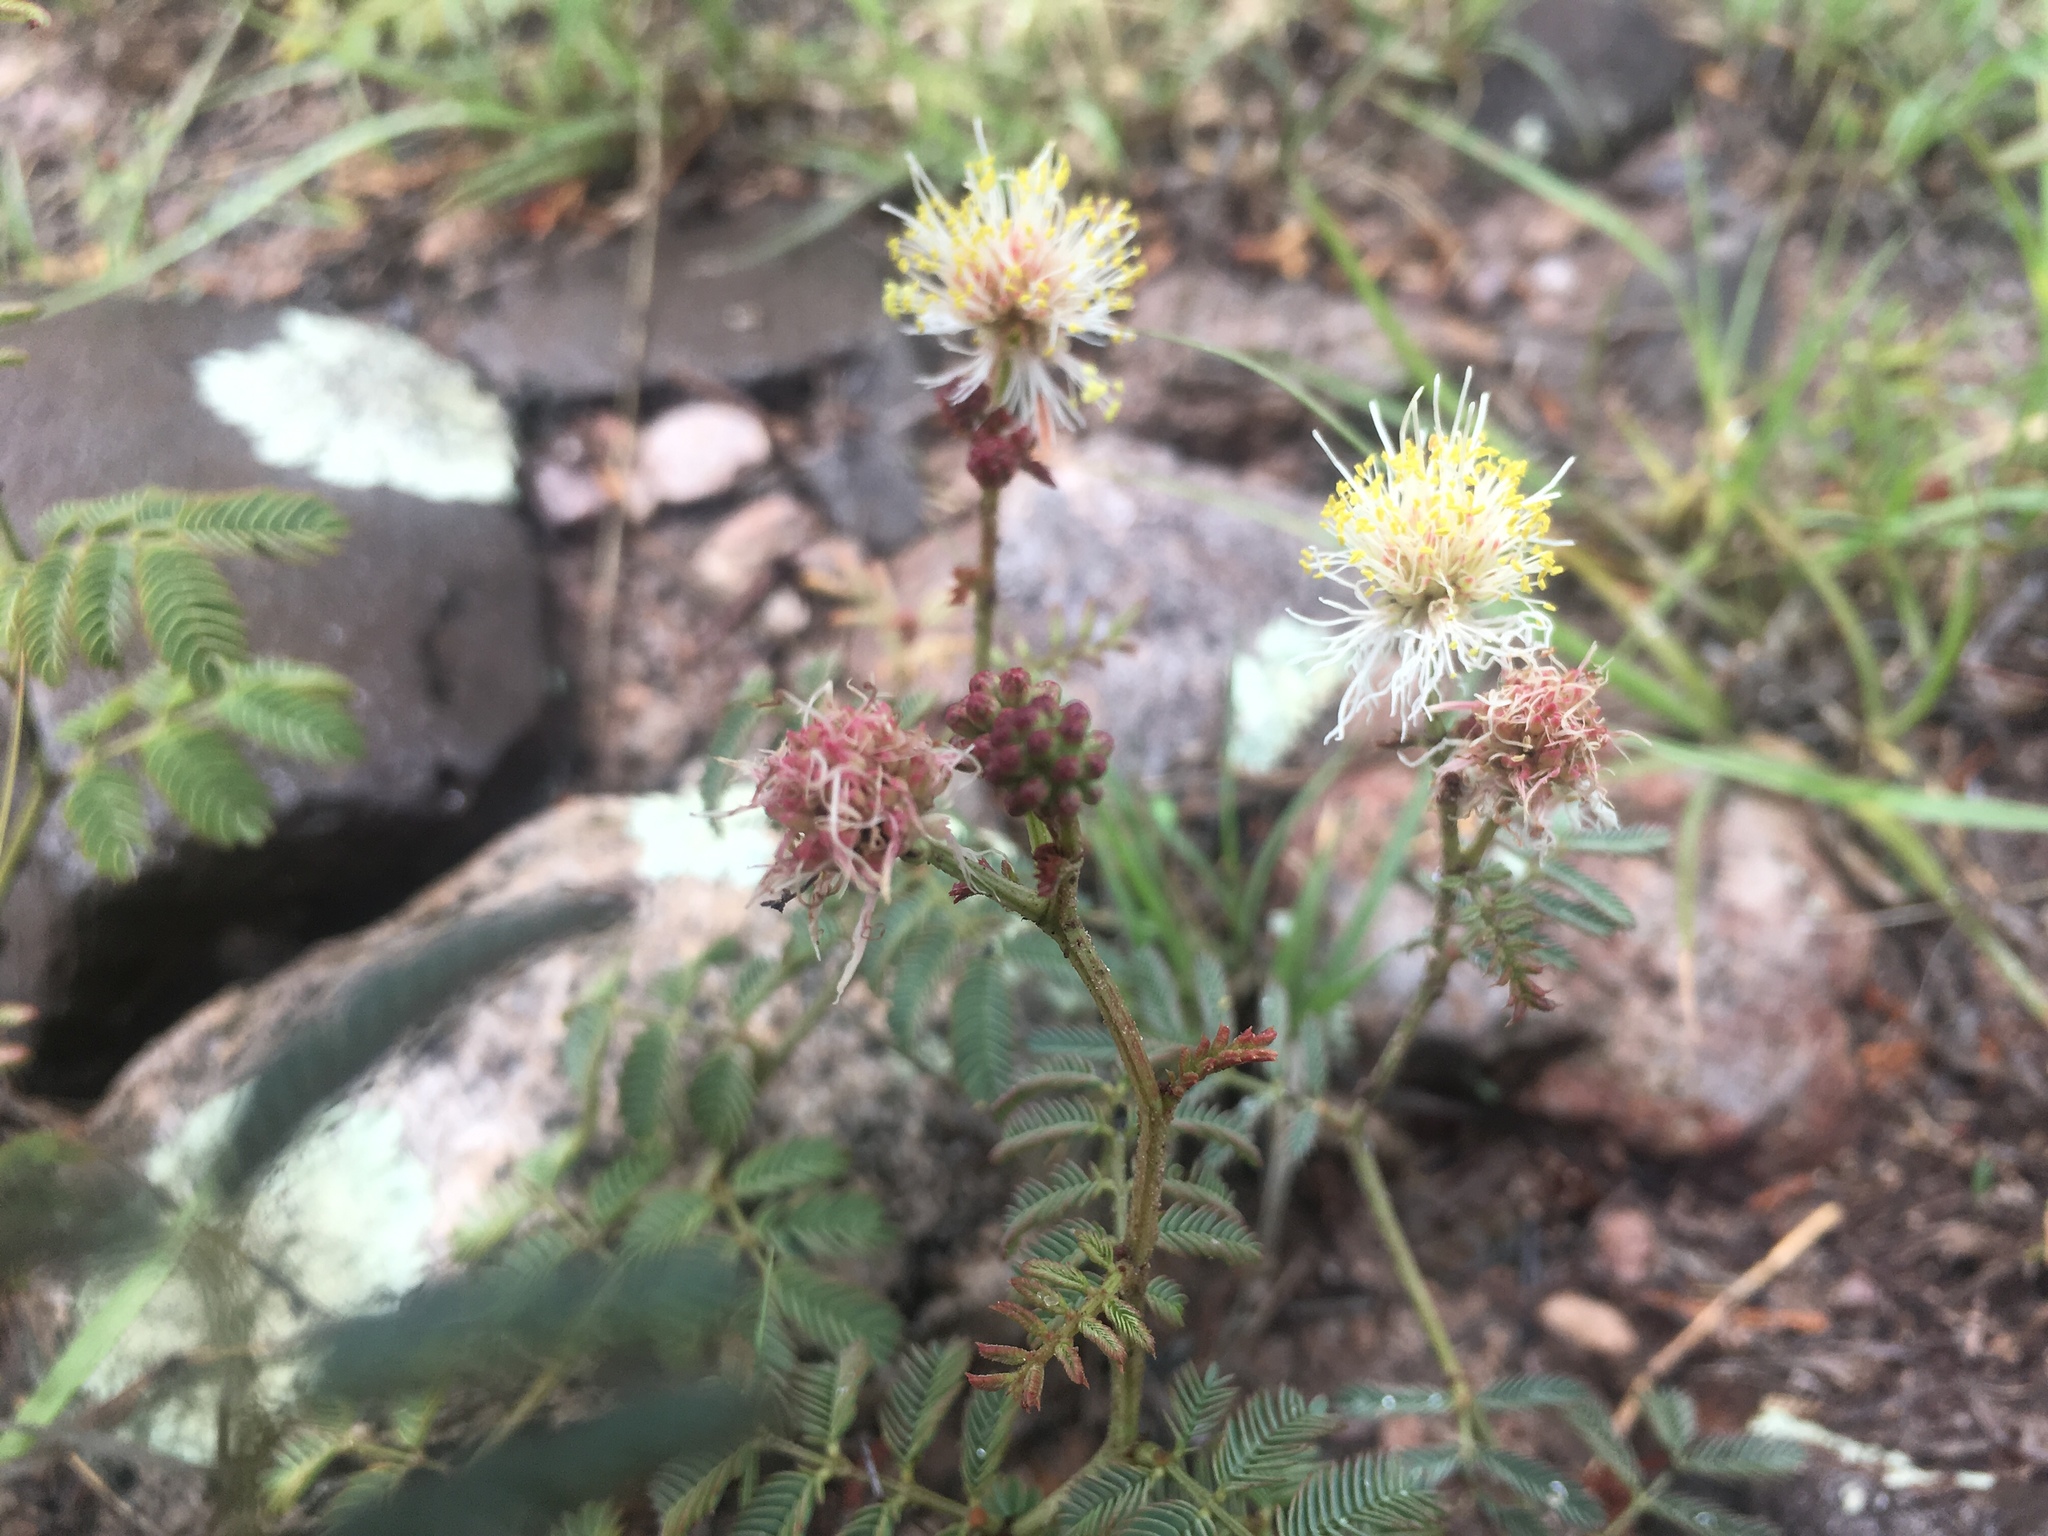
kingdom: Plantae
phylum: Tracheophyta
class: Magnoliopsida
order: Fabales
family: Fabaceae
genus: Desmanthus
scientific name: Desmanthus cooleyi
